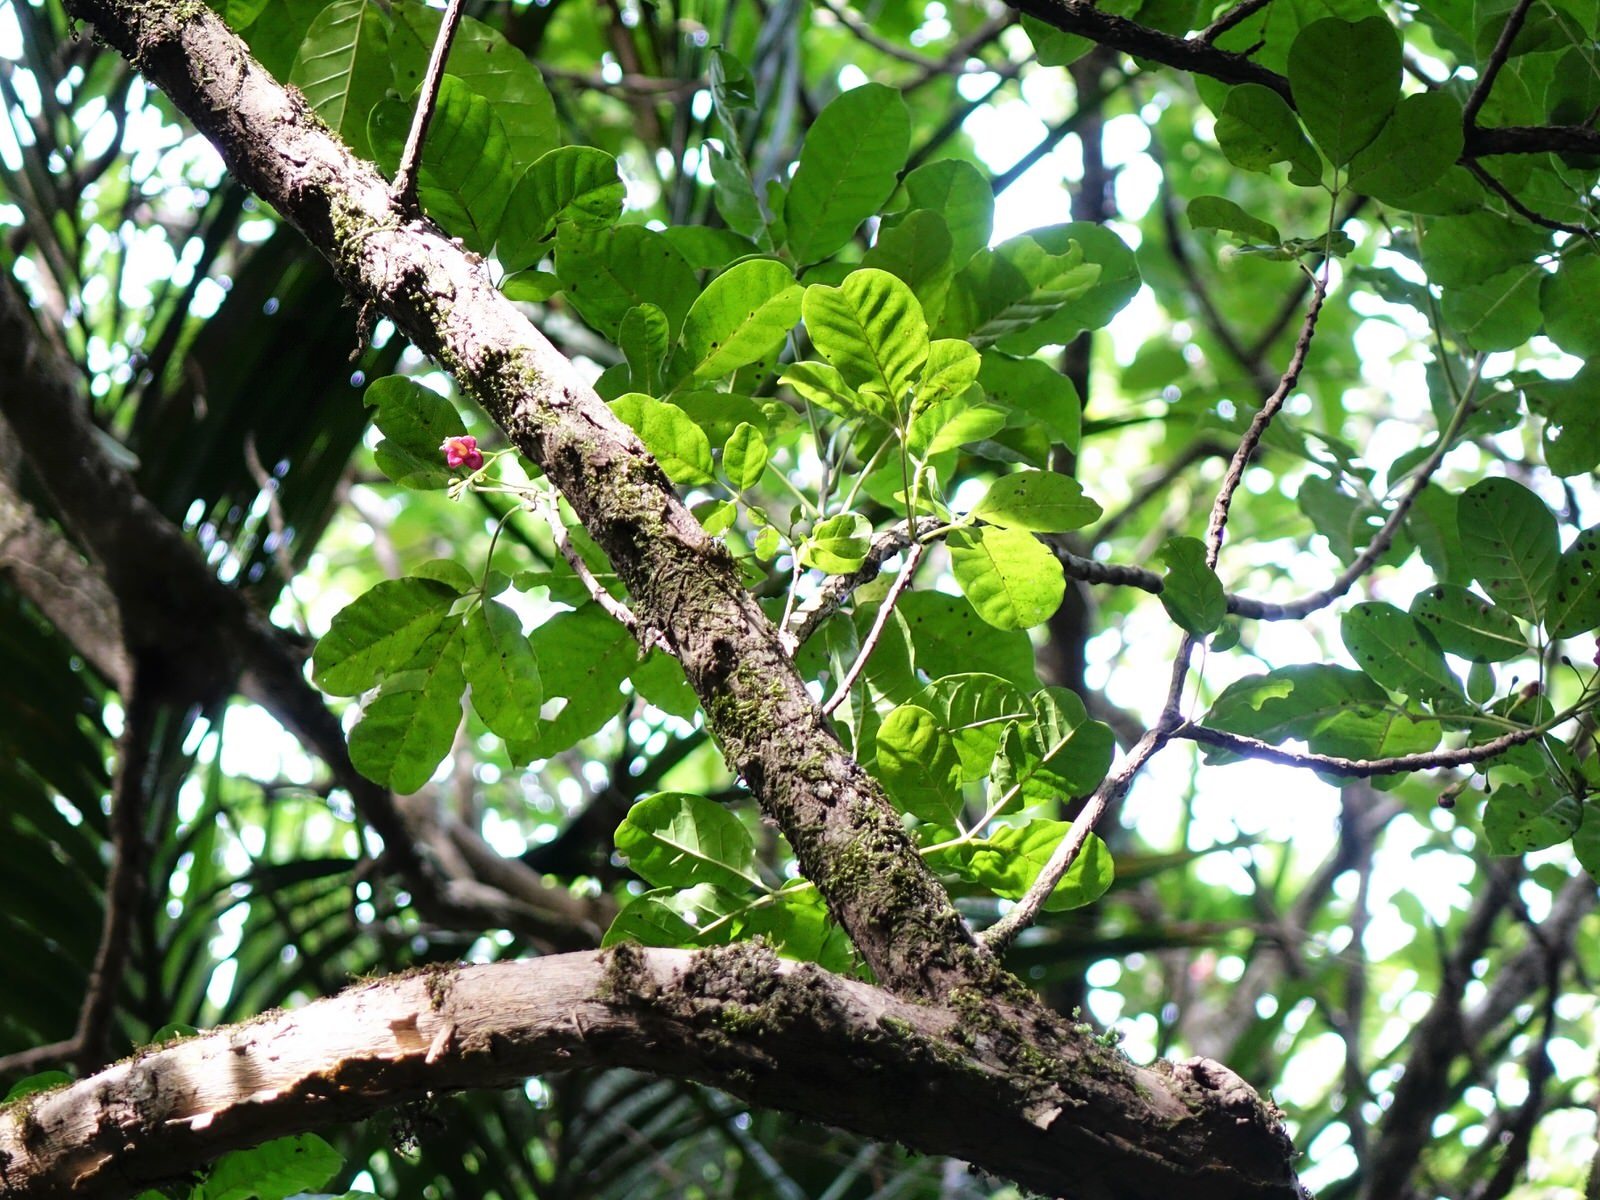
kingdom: Plantae
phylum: Tracheophyta
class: Magnoliopsida
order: Lamiales
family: Lamiaceae
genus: Vitex
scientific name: Vitex lucens
